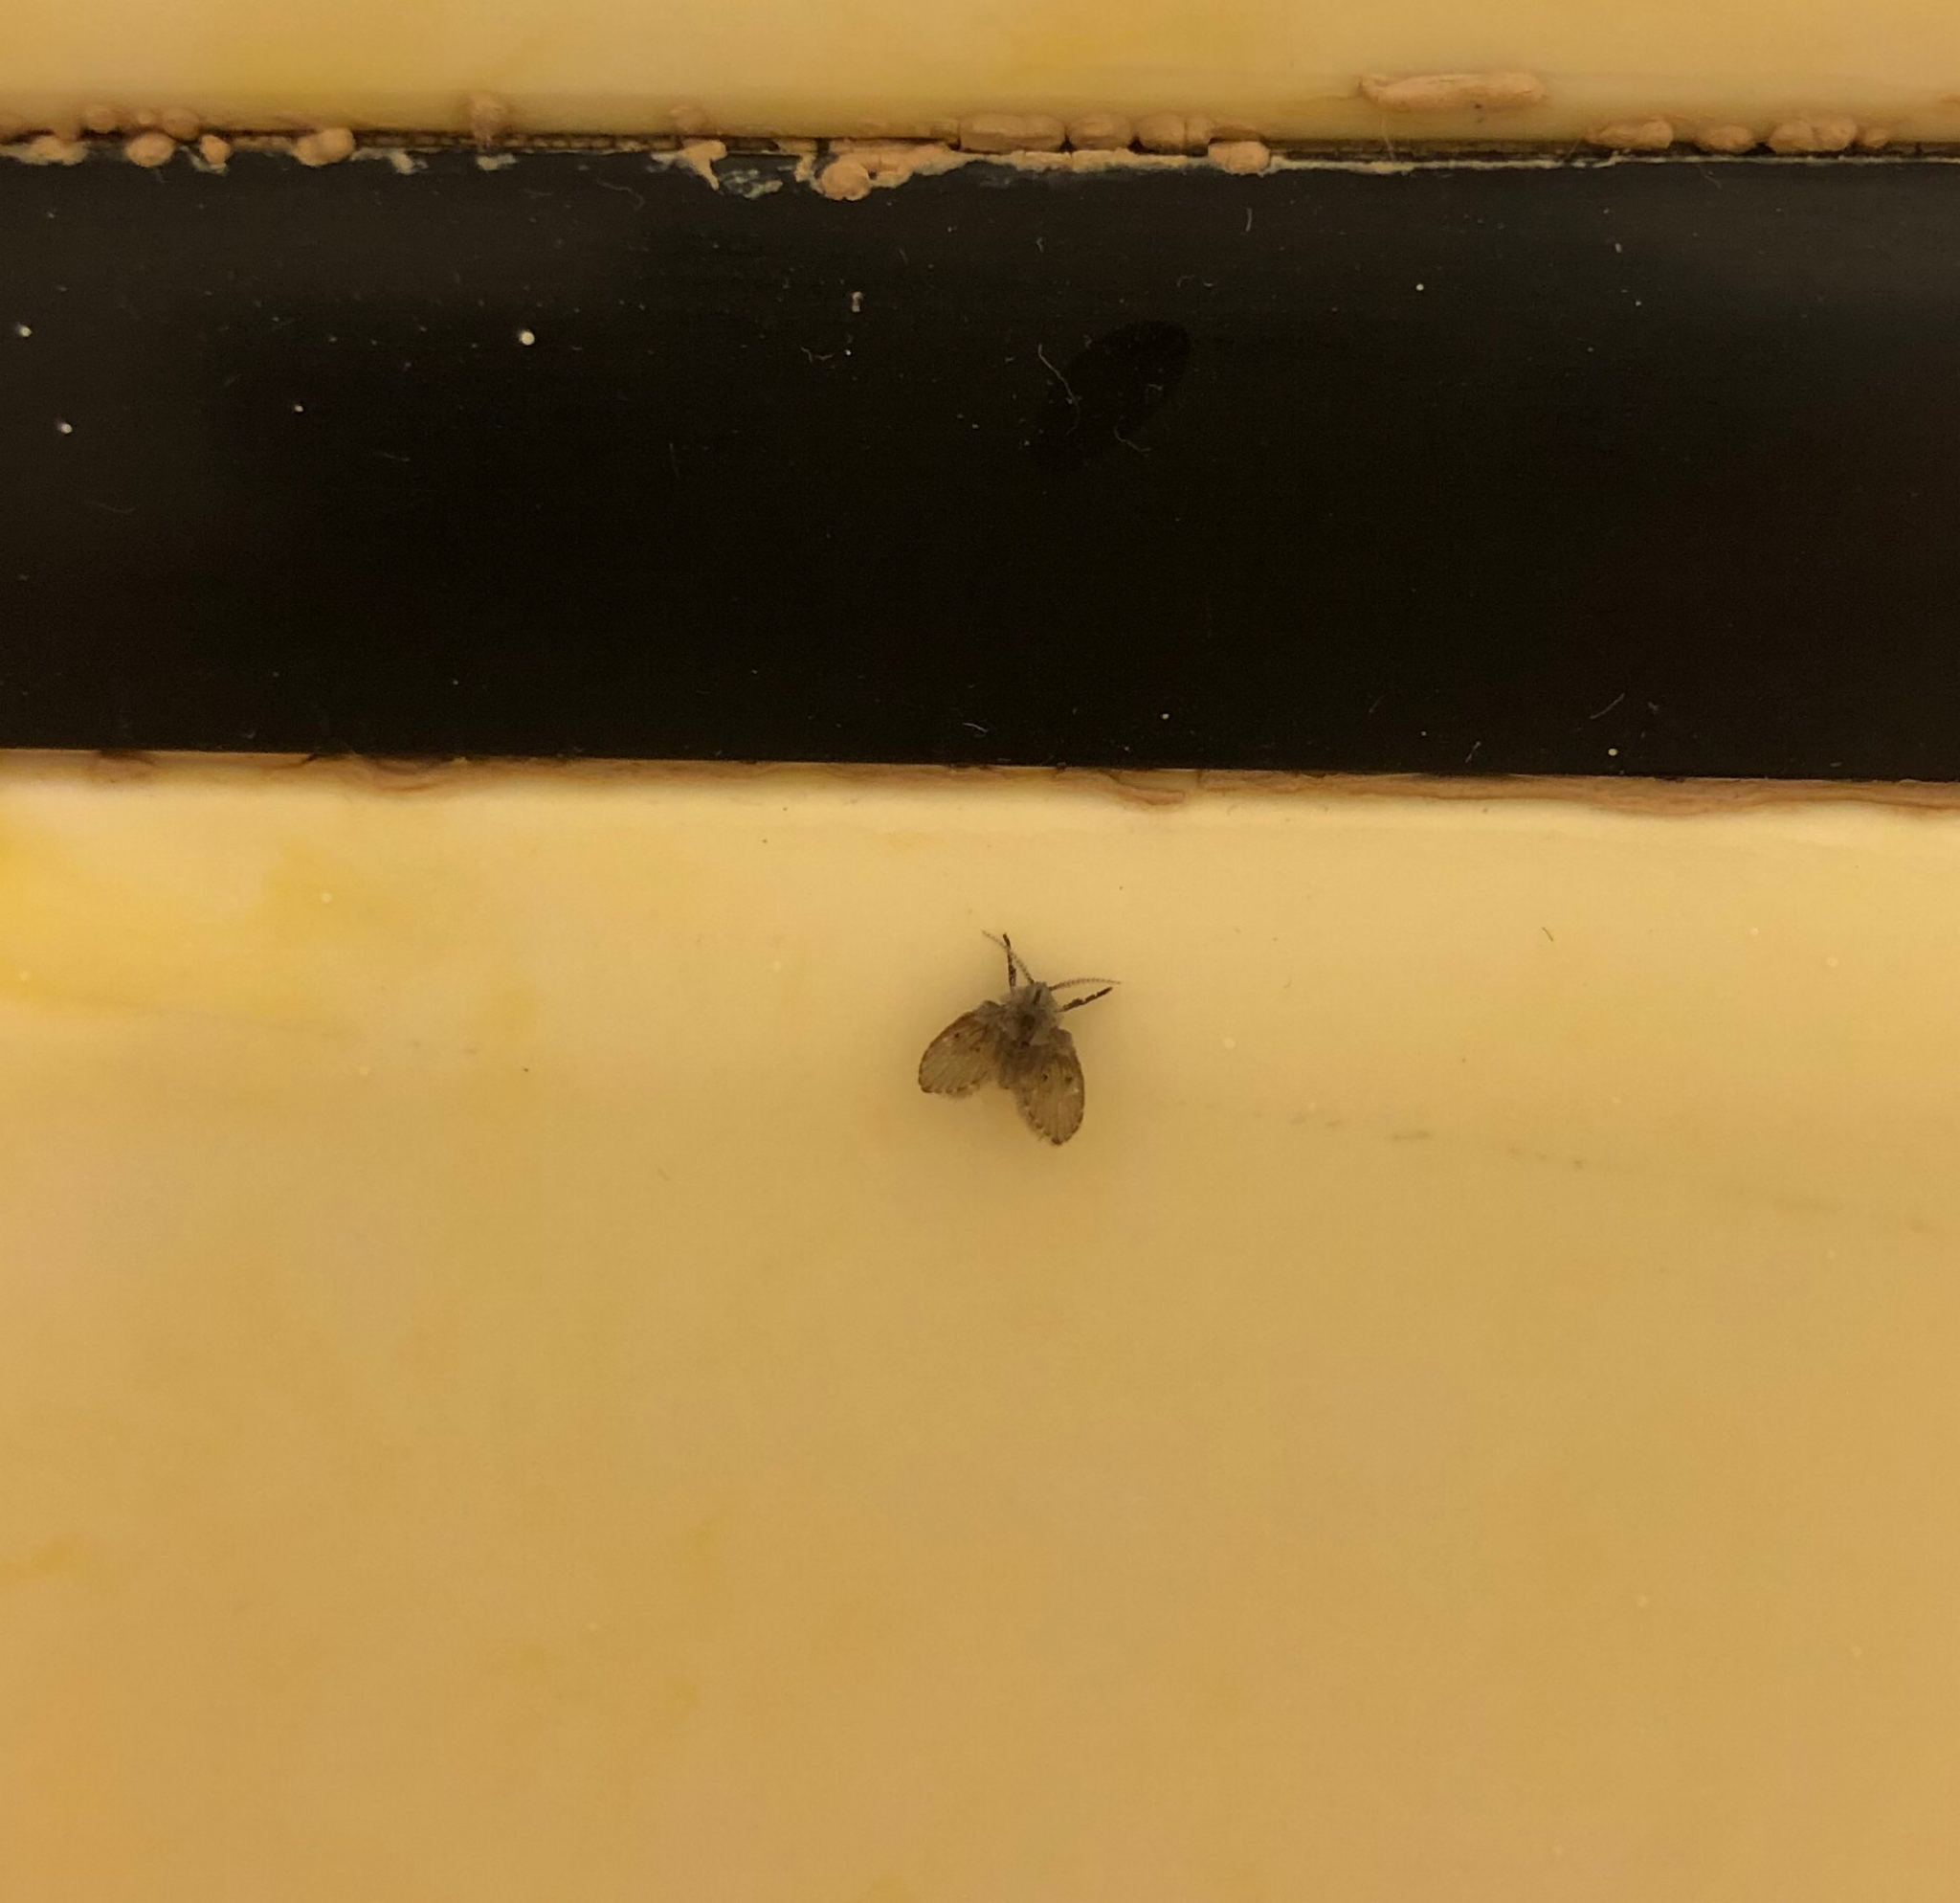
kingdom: Animalia
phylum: Arthropoda
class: Insecta
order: Diptera
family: Psychodidae
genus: Clogmia
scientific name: Clogmia albipunctatus
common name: White-spotted moth fly
